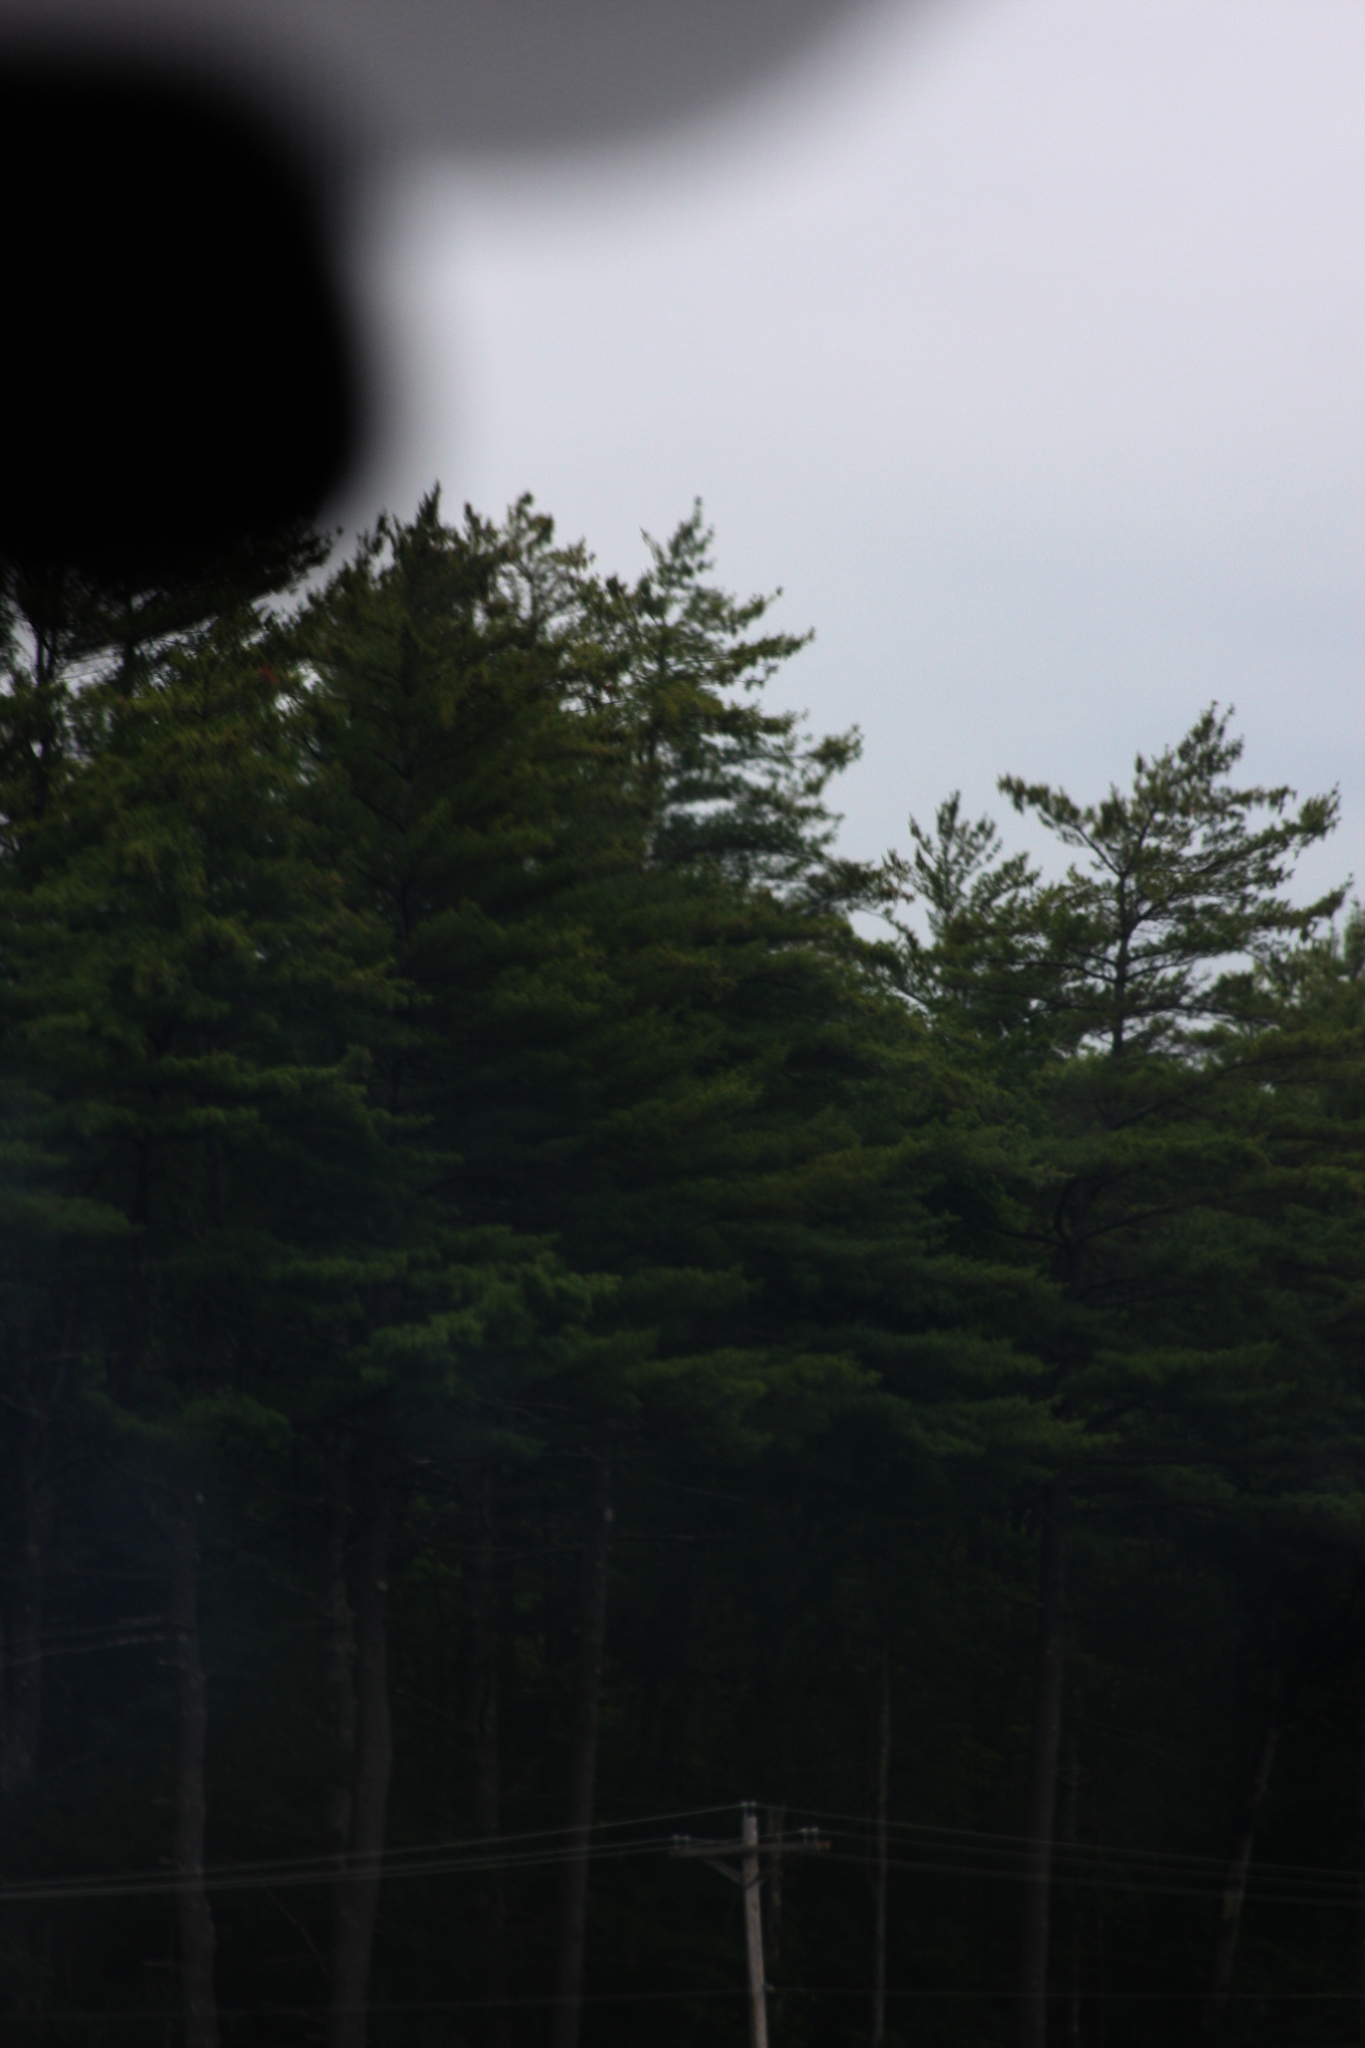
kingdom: Plantae
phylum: Tracheophyta
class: Pinopsida
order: Pinales
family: Pinaceae
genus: Pinus
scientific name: Pinus strobus
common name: Weymouth pine
